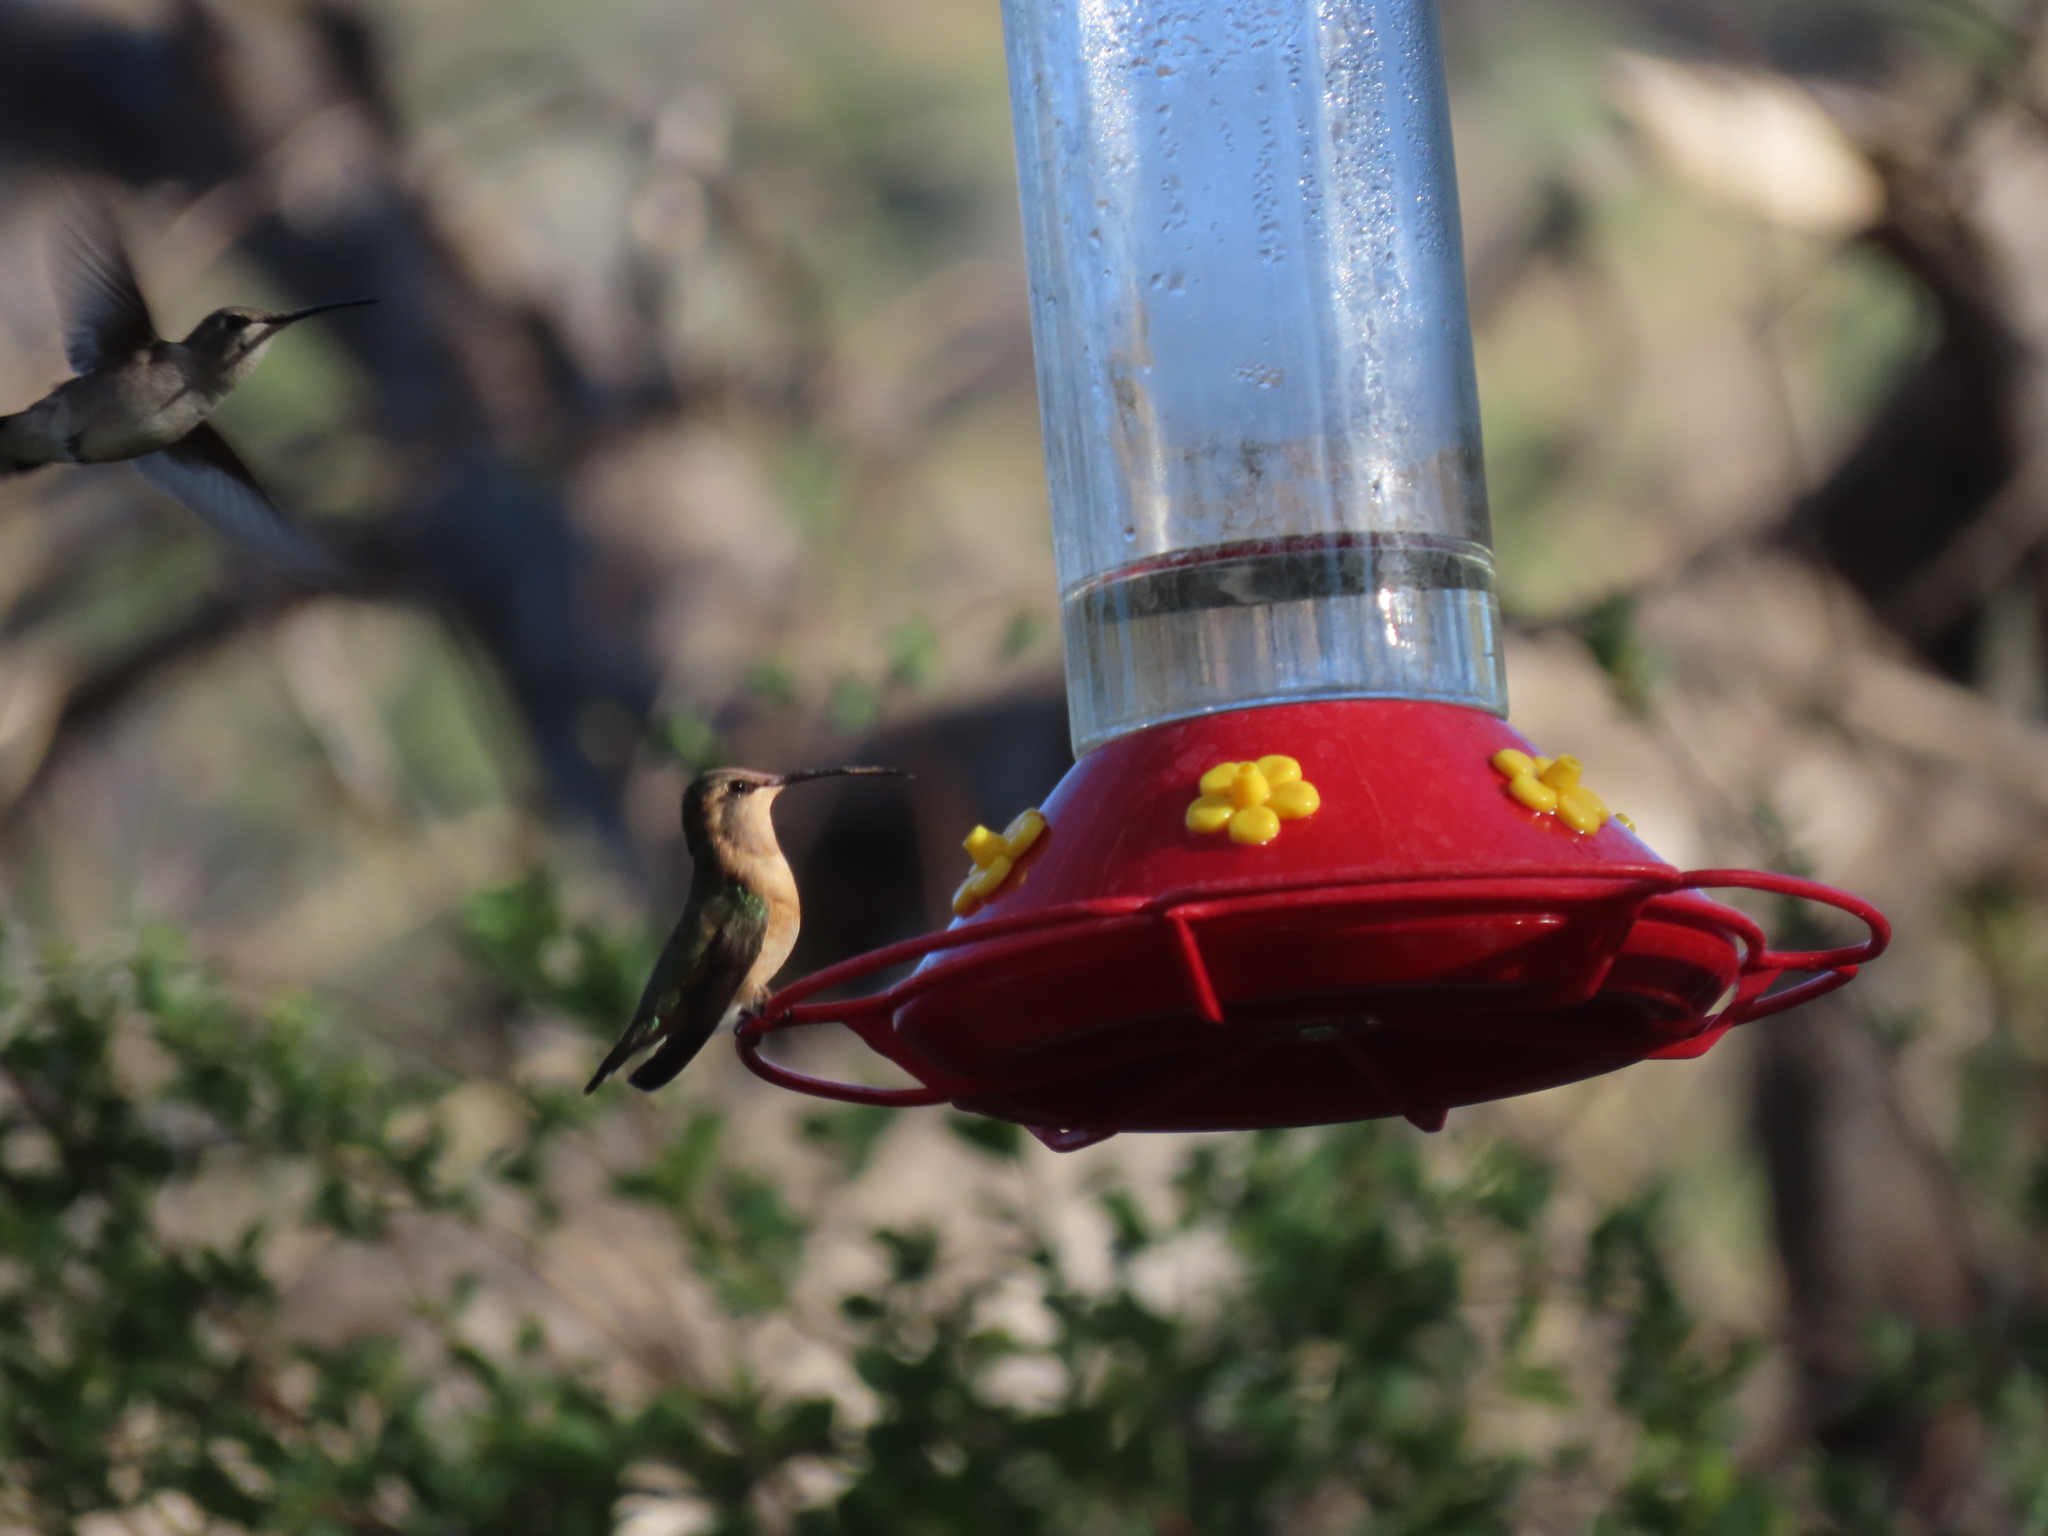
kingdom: Animalia
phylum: Chordata
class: Aves
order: Apodiformes
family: Trochilidae
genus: Calothorax
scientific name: Calothorax lucifer
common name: Lucifer sheartail
